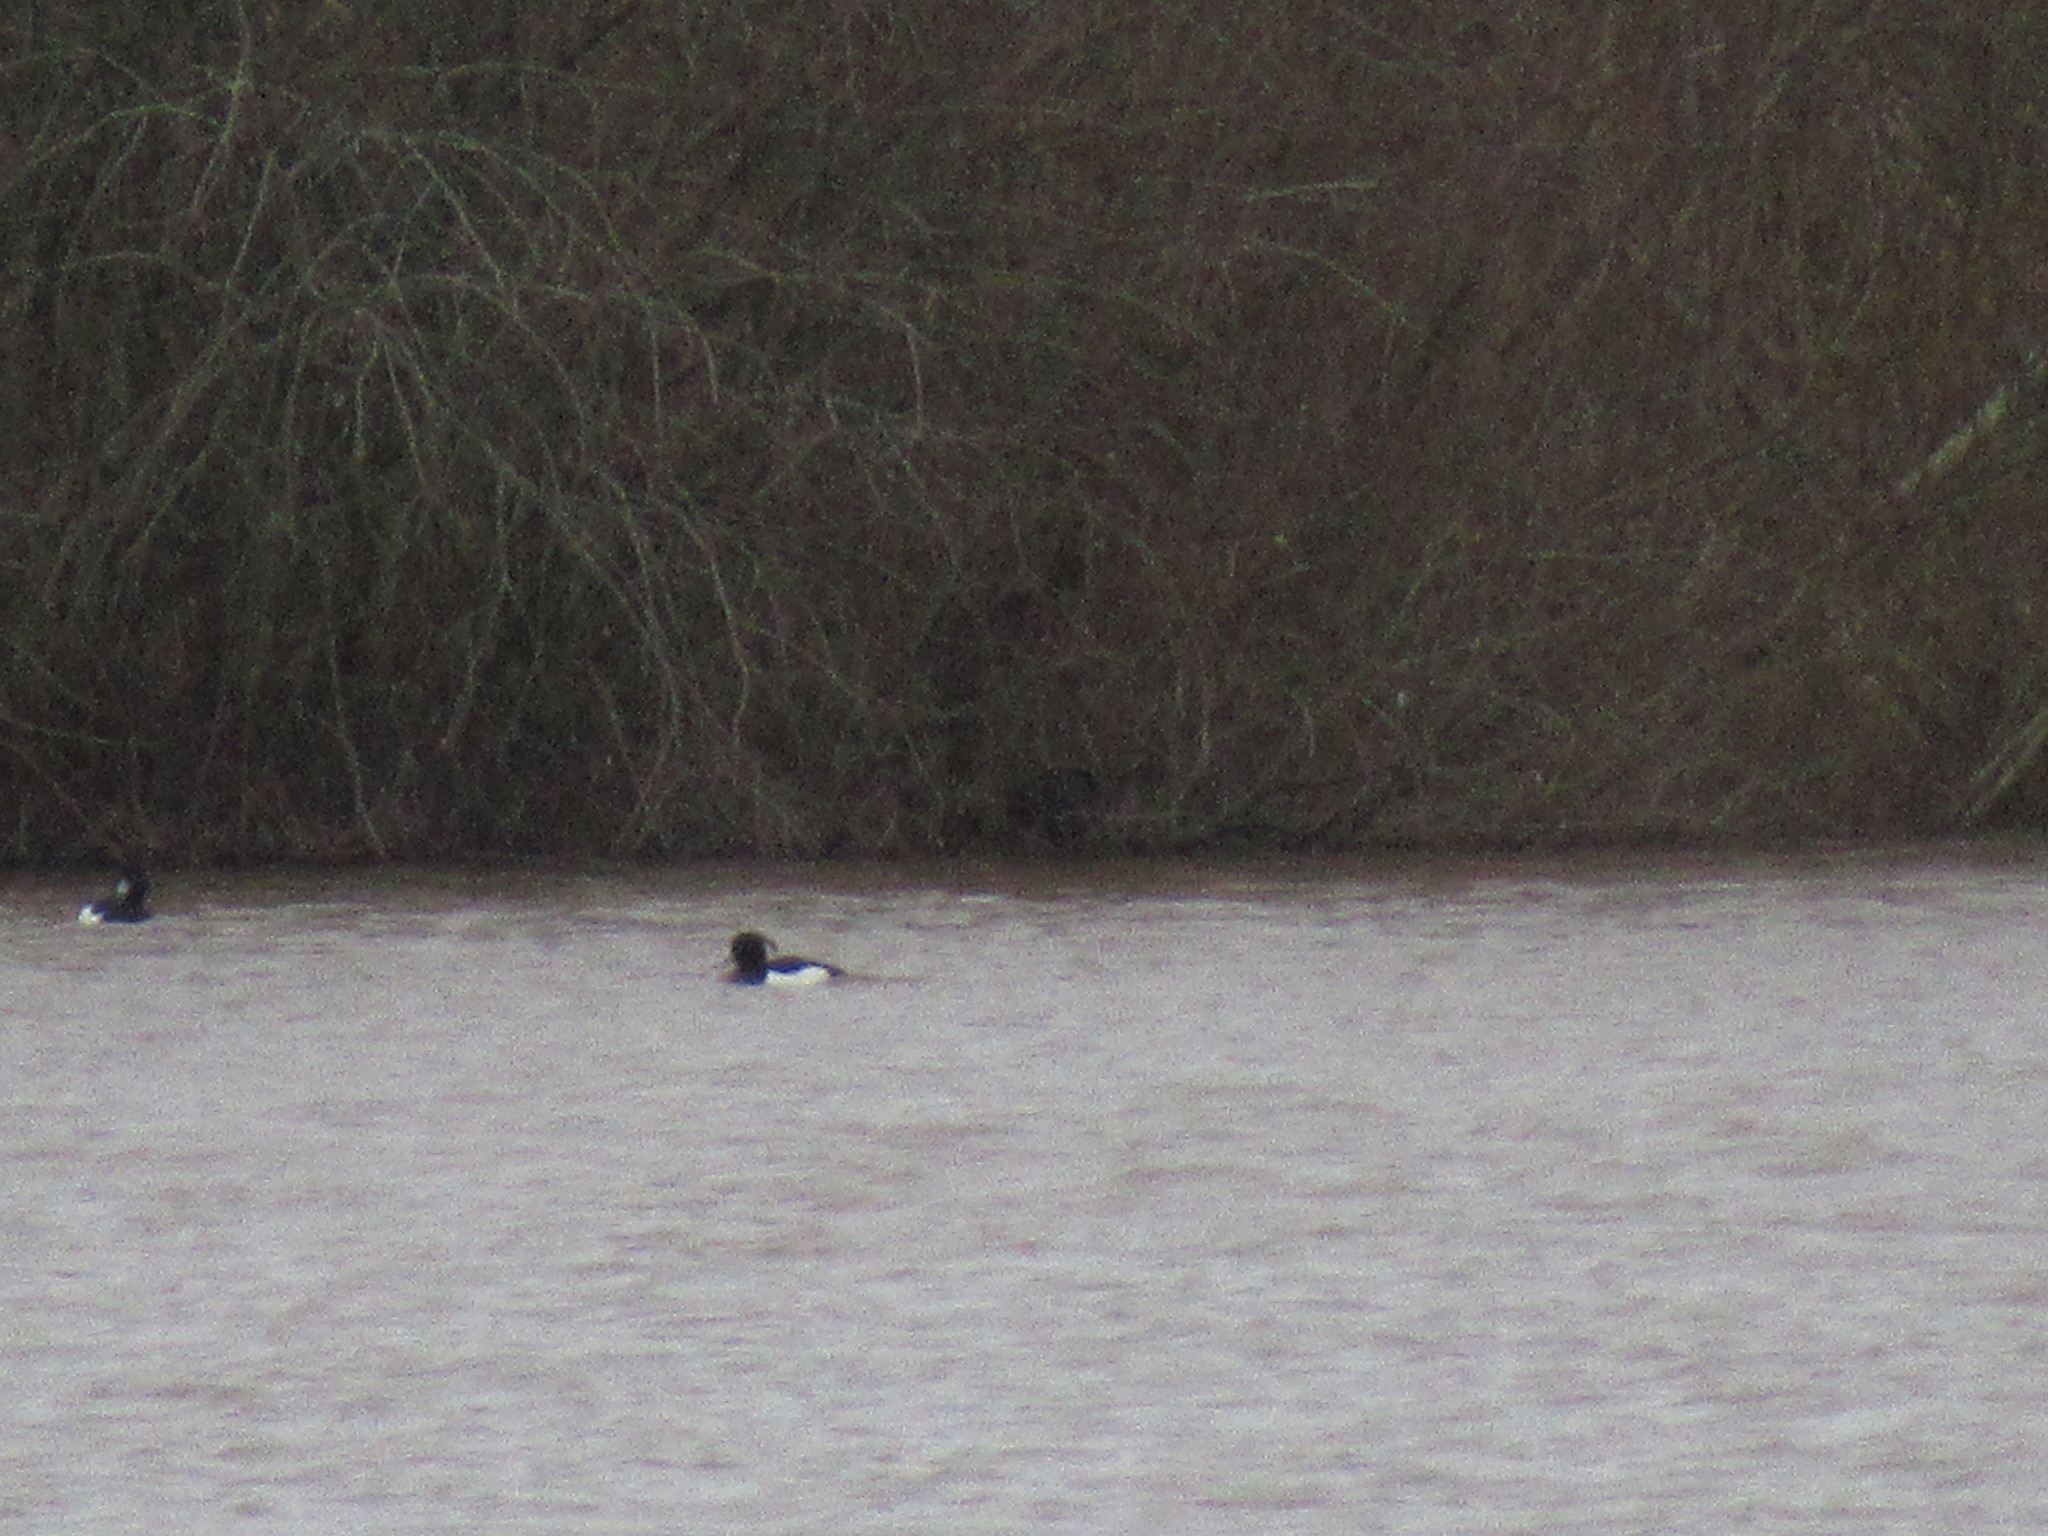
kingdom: Animalia
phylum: Chordata
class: Aves
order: Anseriformes
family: Anatidae
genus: Aythya
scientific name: Aythya fuligula
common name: Tufted duck
